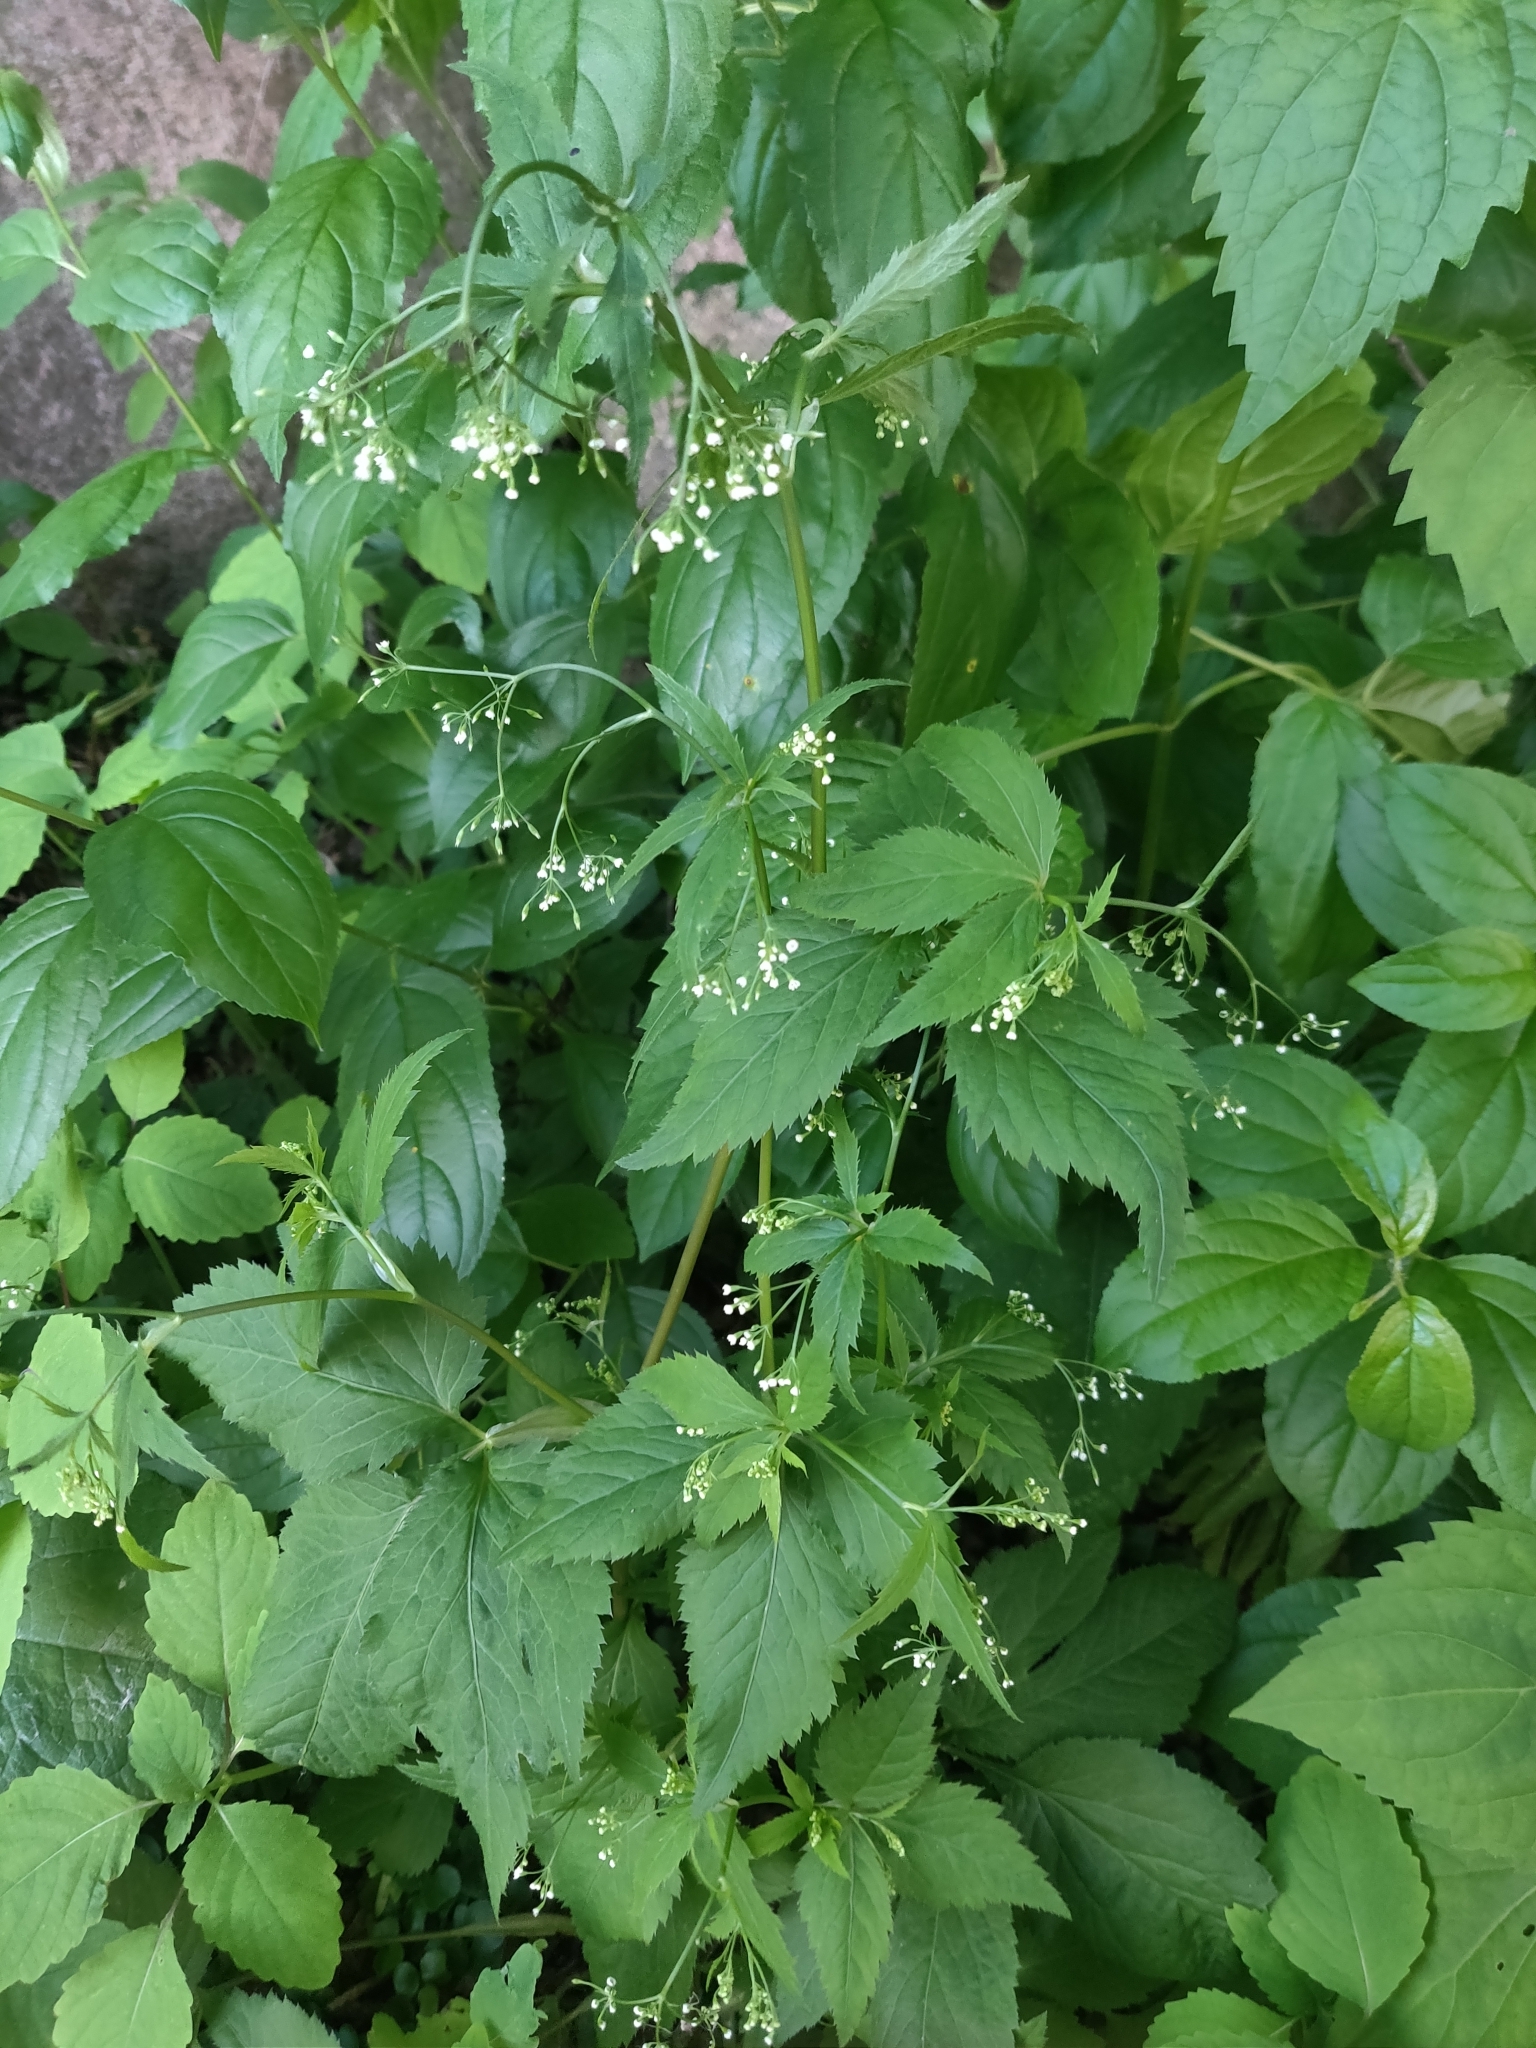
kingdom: Plantae
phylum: Tracheophyta
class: Magnoliopsida
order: Apiales
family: Apiaceae
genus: Cryptotaenia
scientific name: Cryptotaenia canadensis
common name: Honewort
